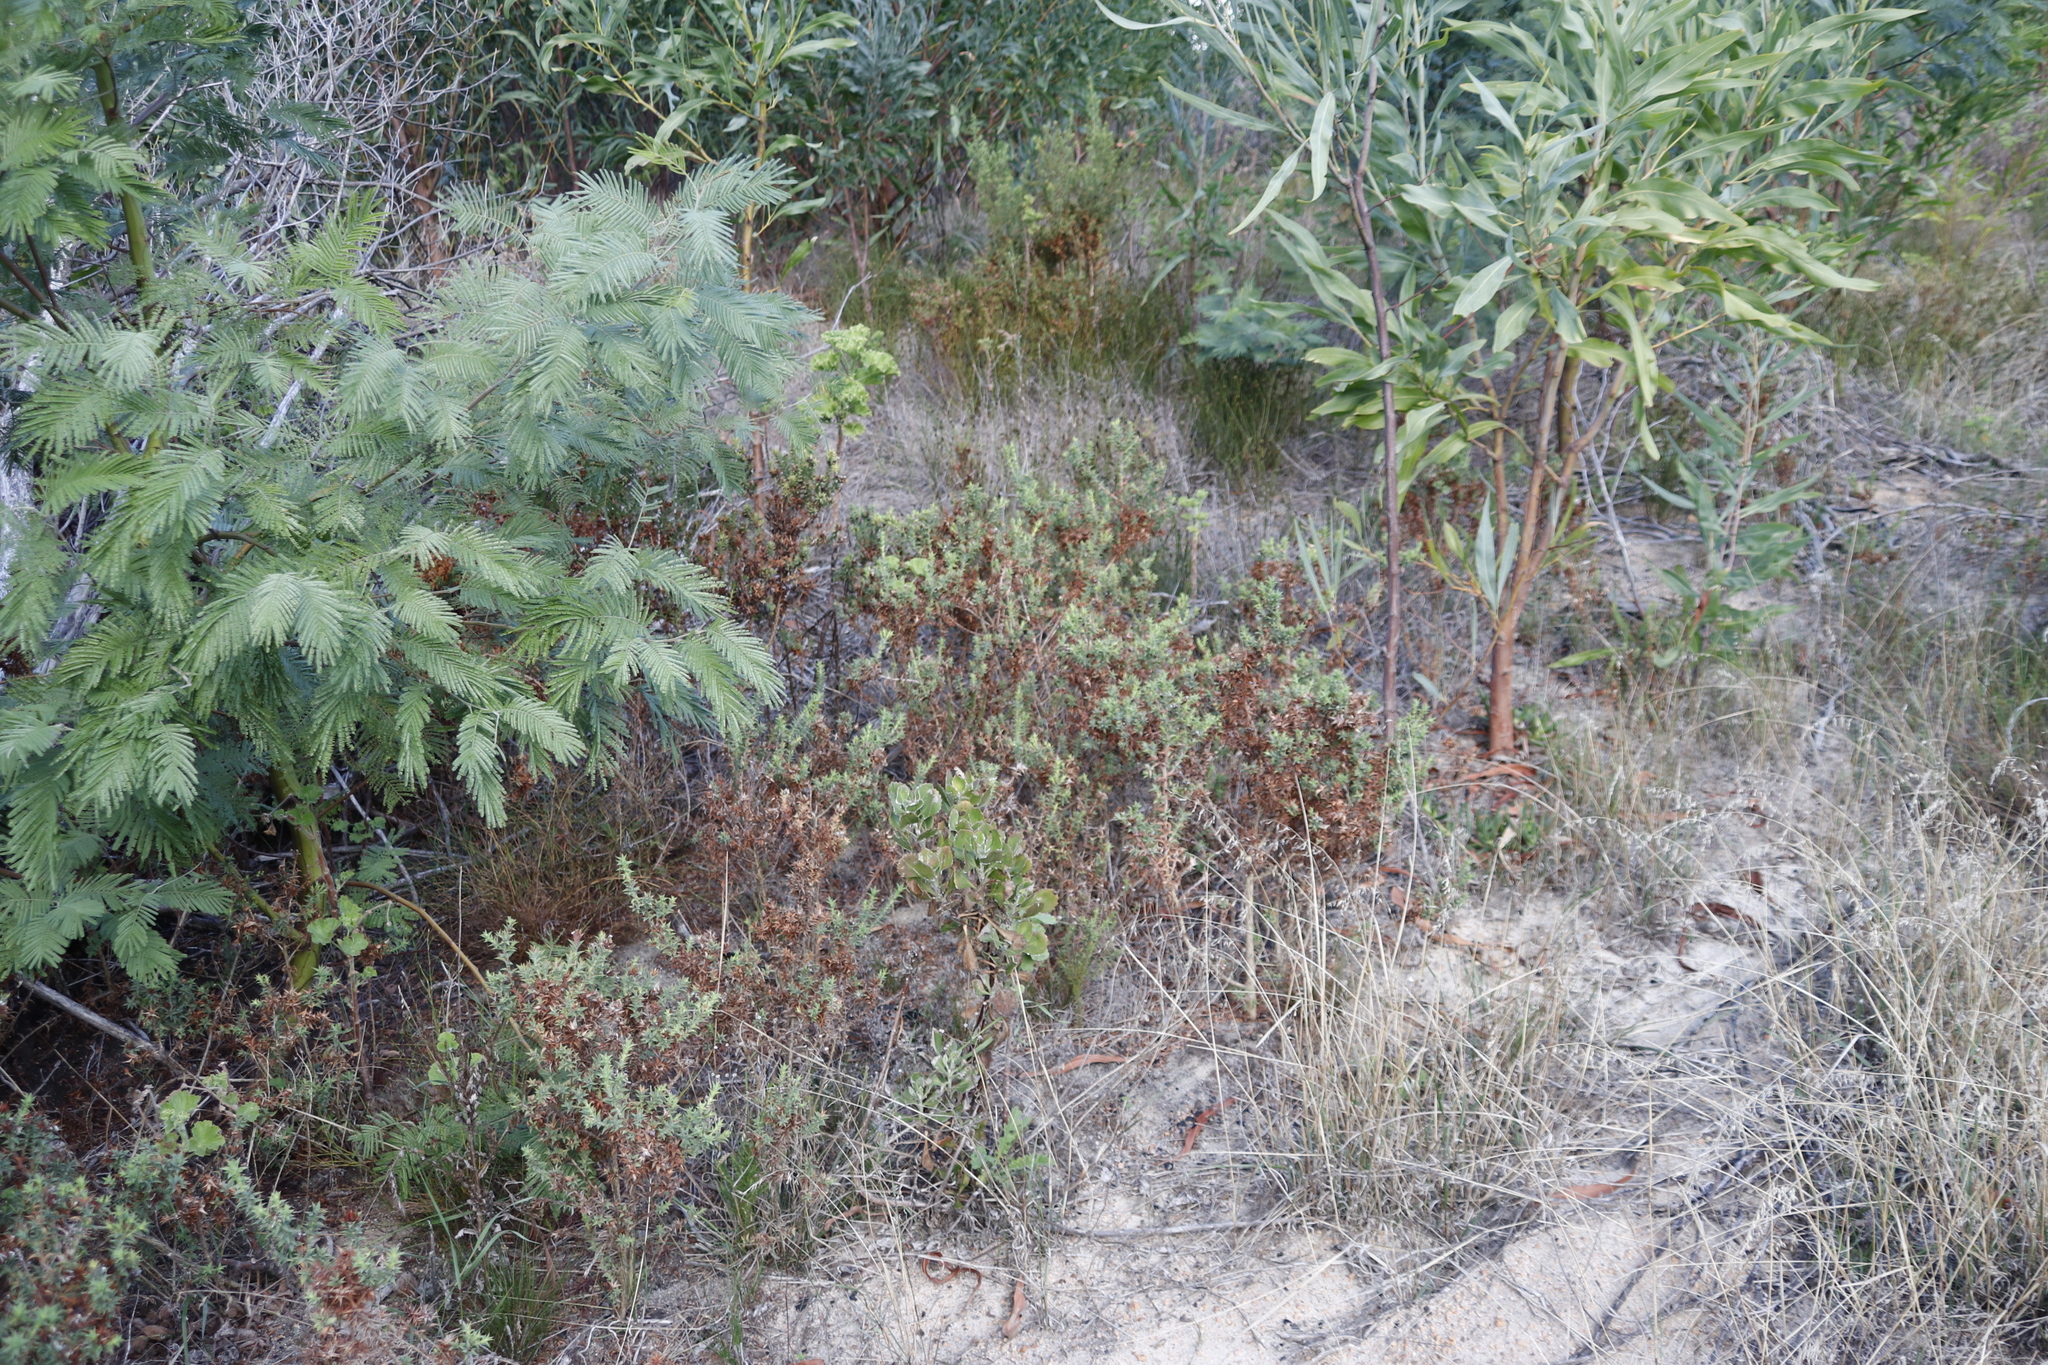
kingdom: Plantae
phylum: Tracheophyta
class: Magnoliopsida
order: Fabales
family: Fabaceae
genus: Acacia
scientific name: Acacia mearnsii
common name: Black wattle
